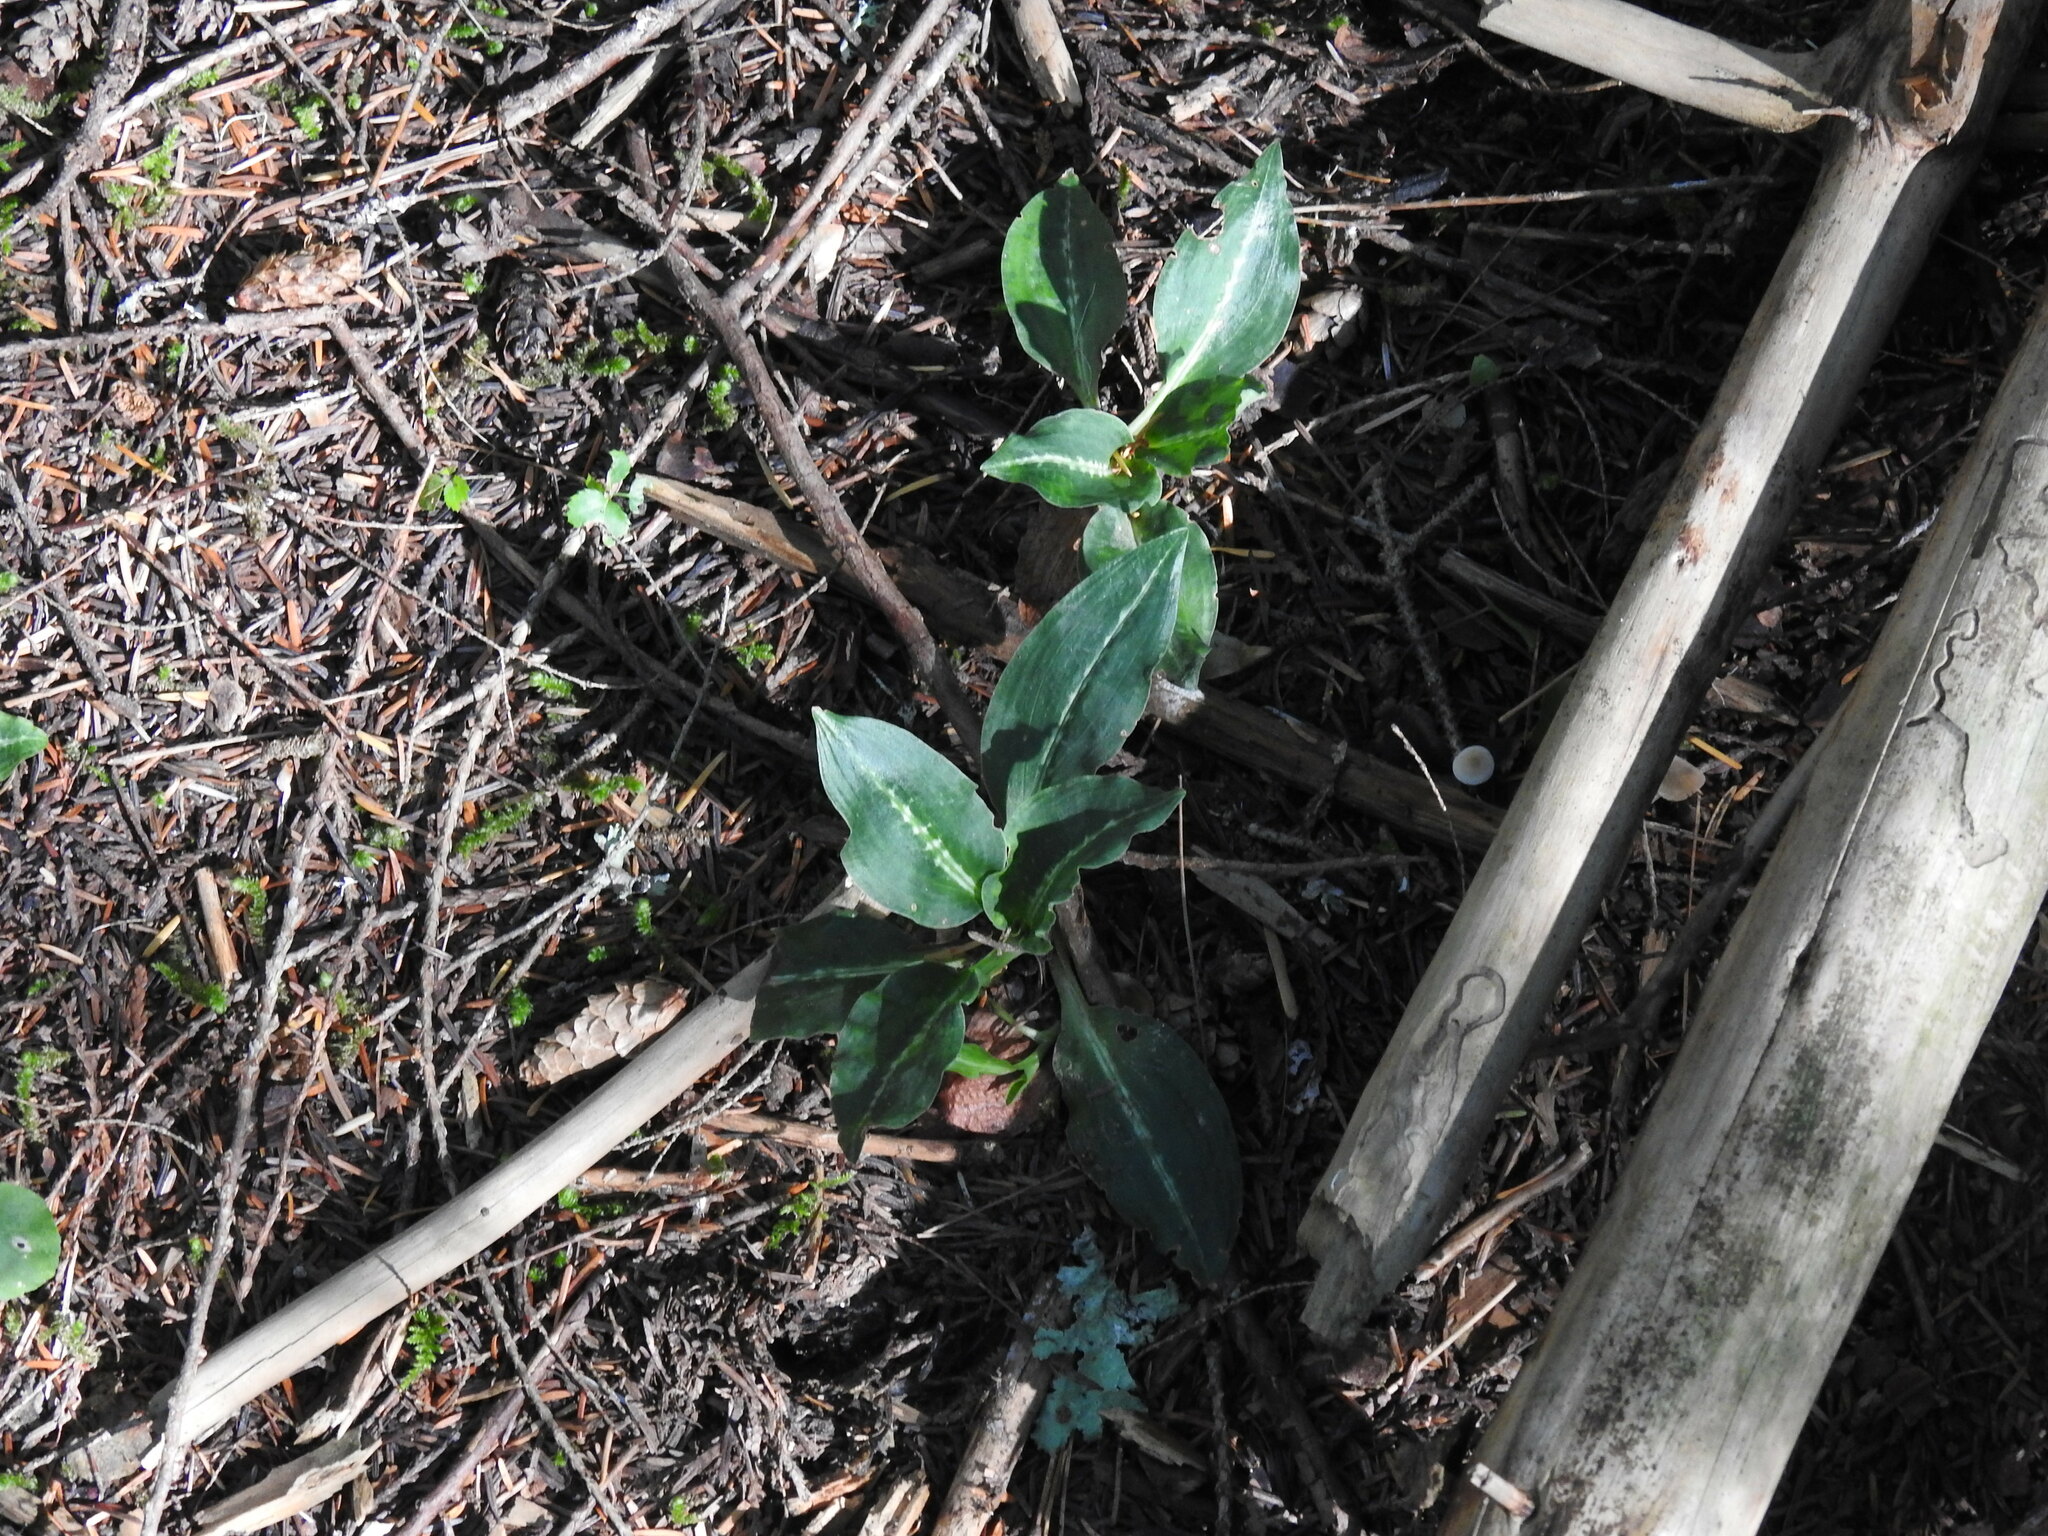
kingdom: Plantae
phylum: Tracheophyta
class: Liliopsida
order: Asparagales
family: Orchidaceae
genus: Goodyera
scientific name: Goodyera oblongifolia
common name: Giant rattlesnake-plantain
